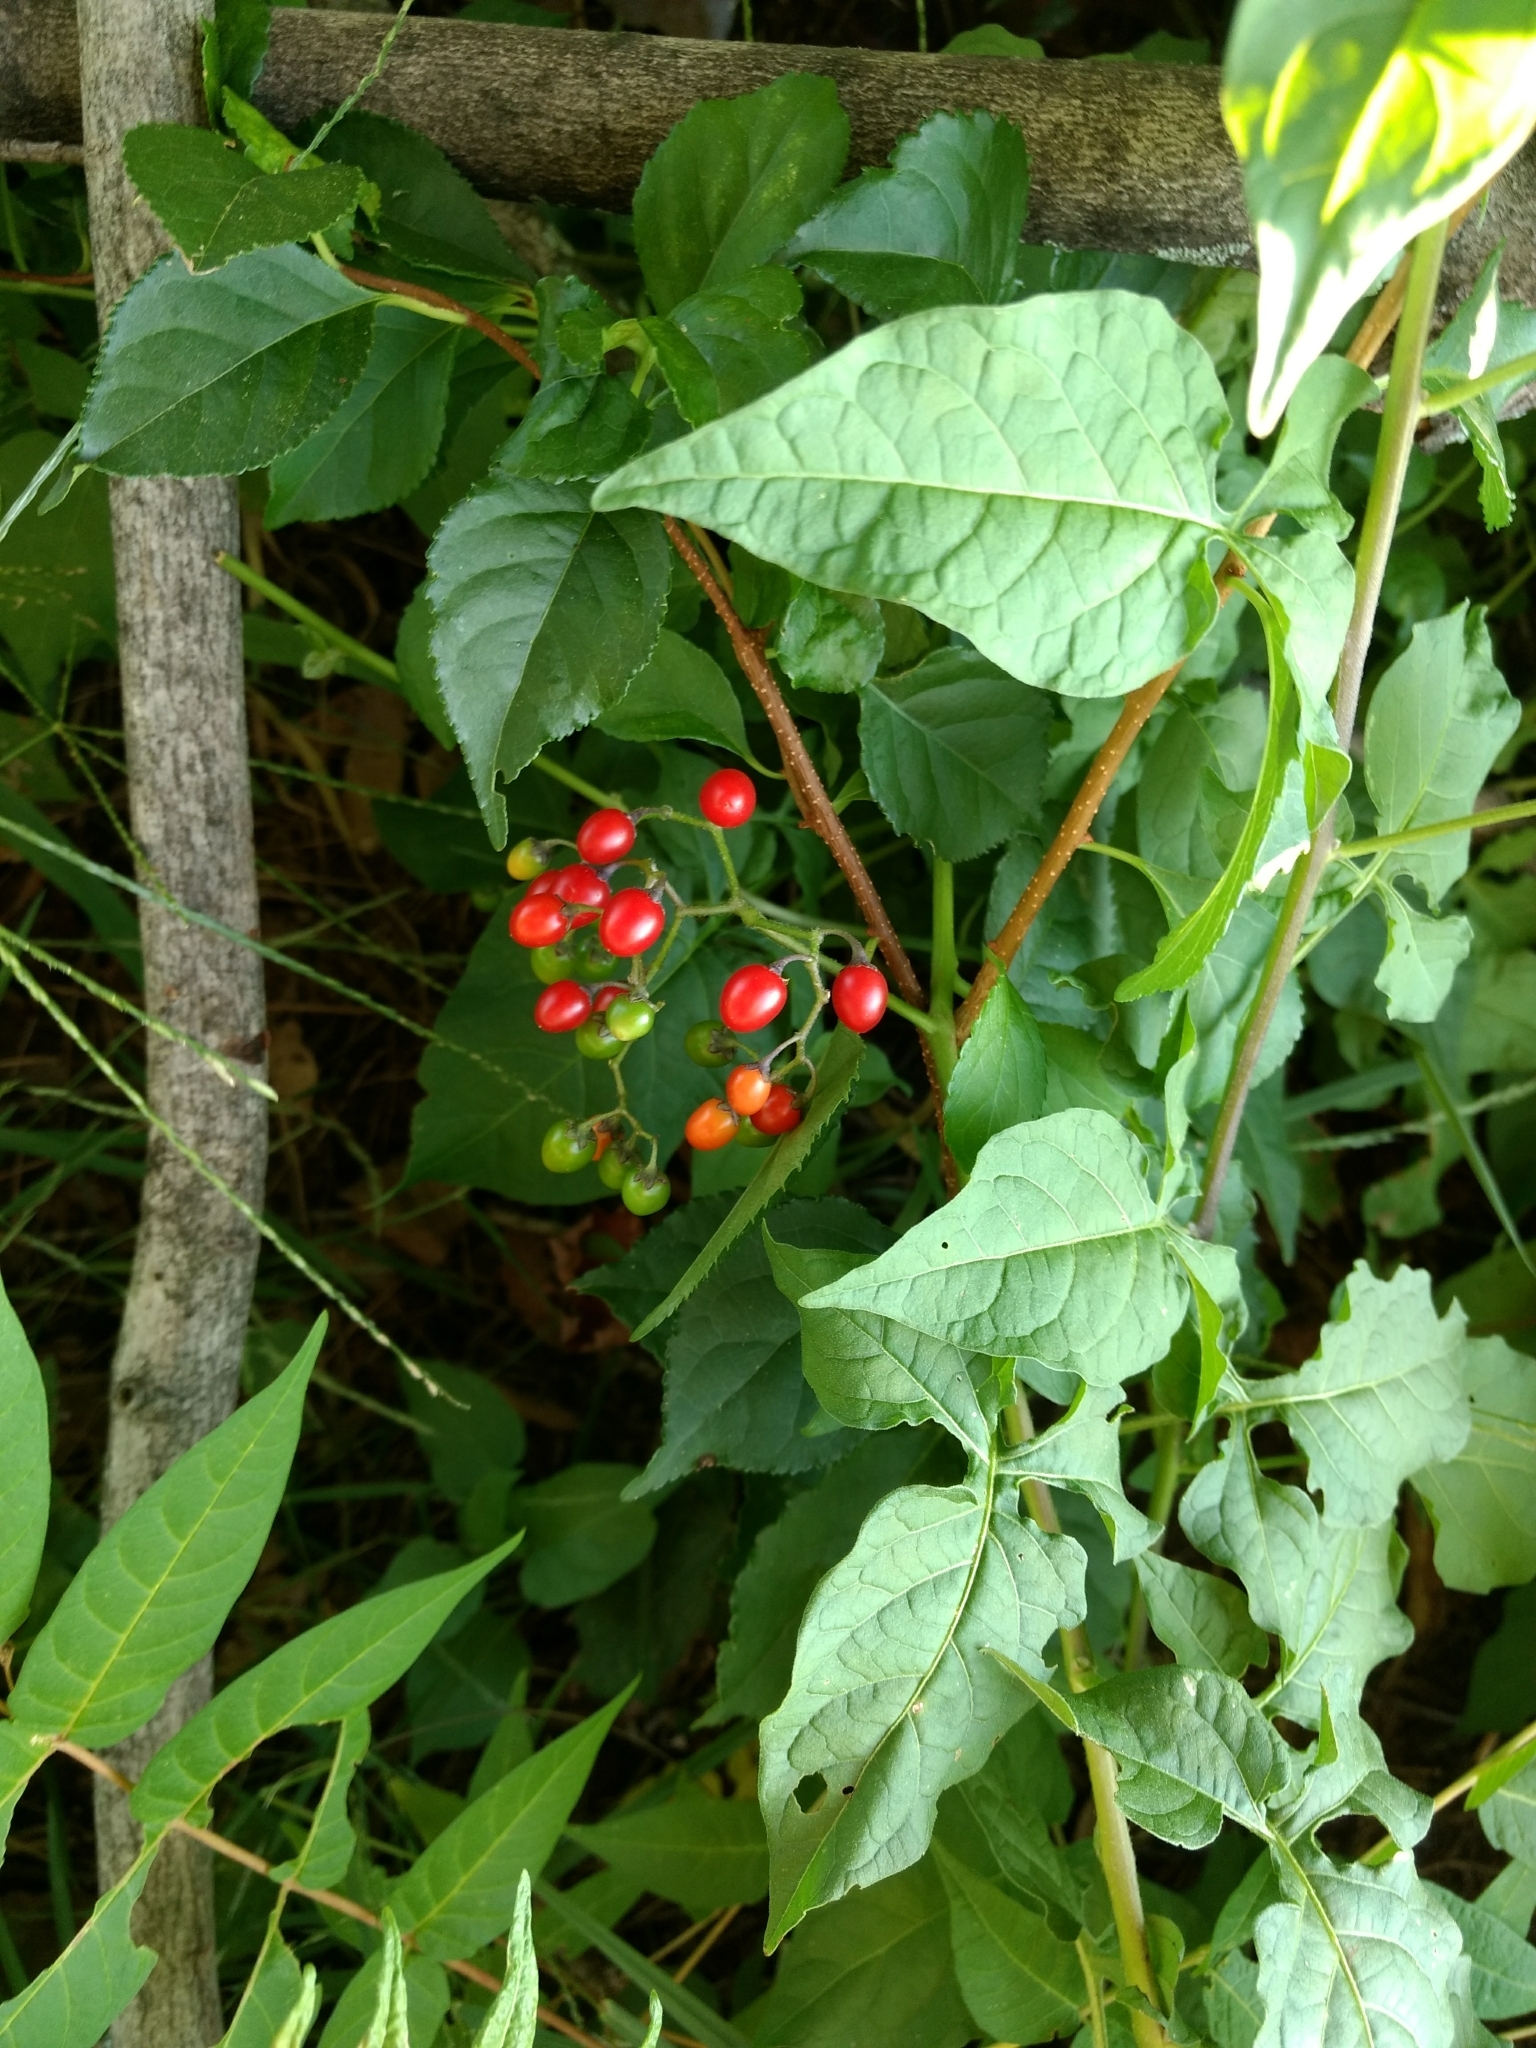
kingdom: Plantae
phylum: Tracheophyta
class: Magnoliopsida
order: Solanales
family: Solanaceae
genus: Solanum
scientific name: Solanum dulcamara
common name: Climbing nightshade
